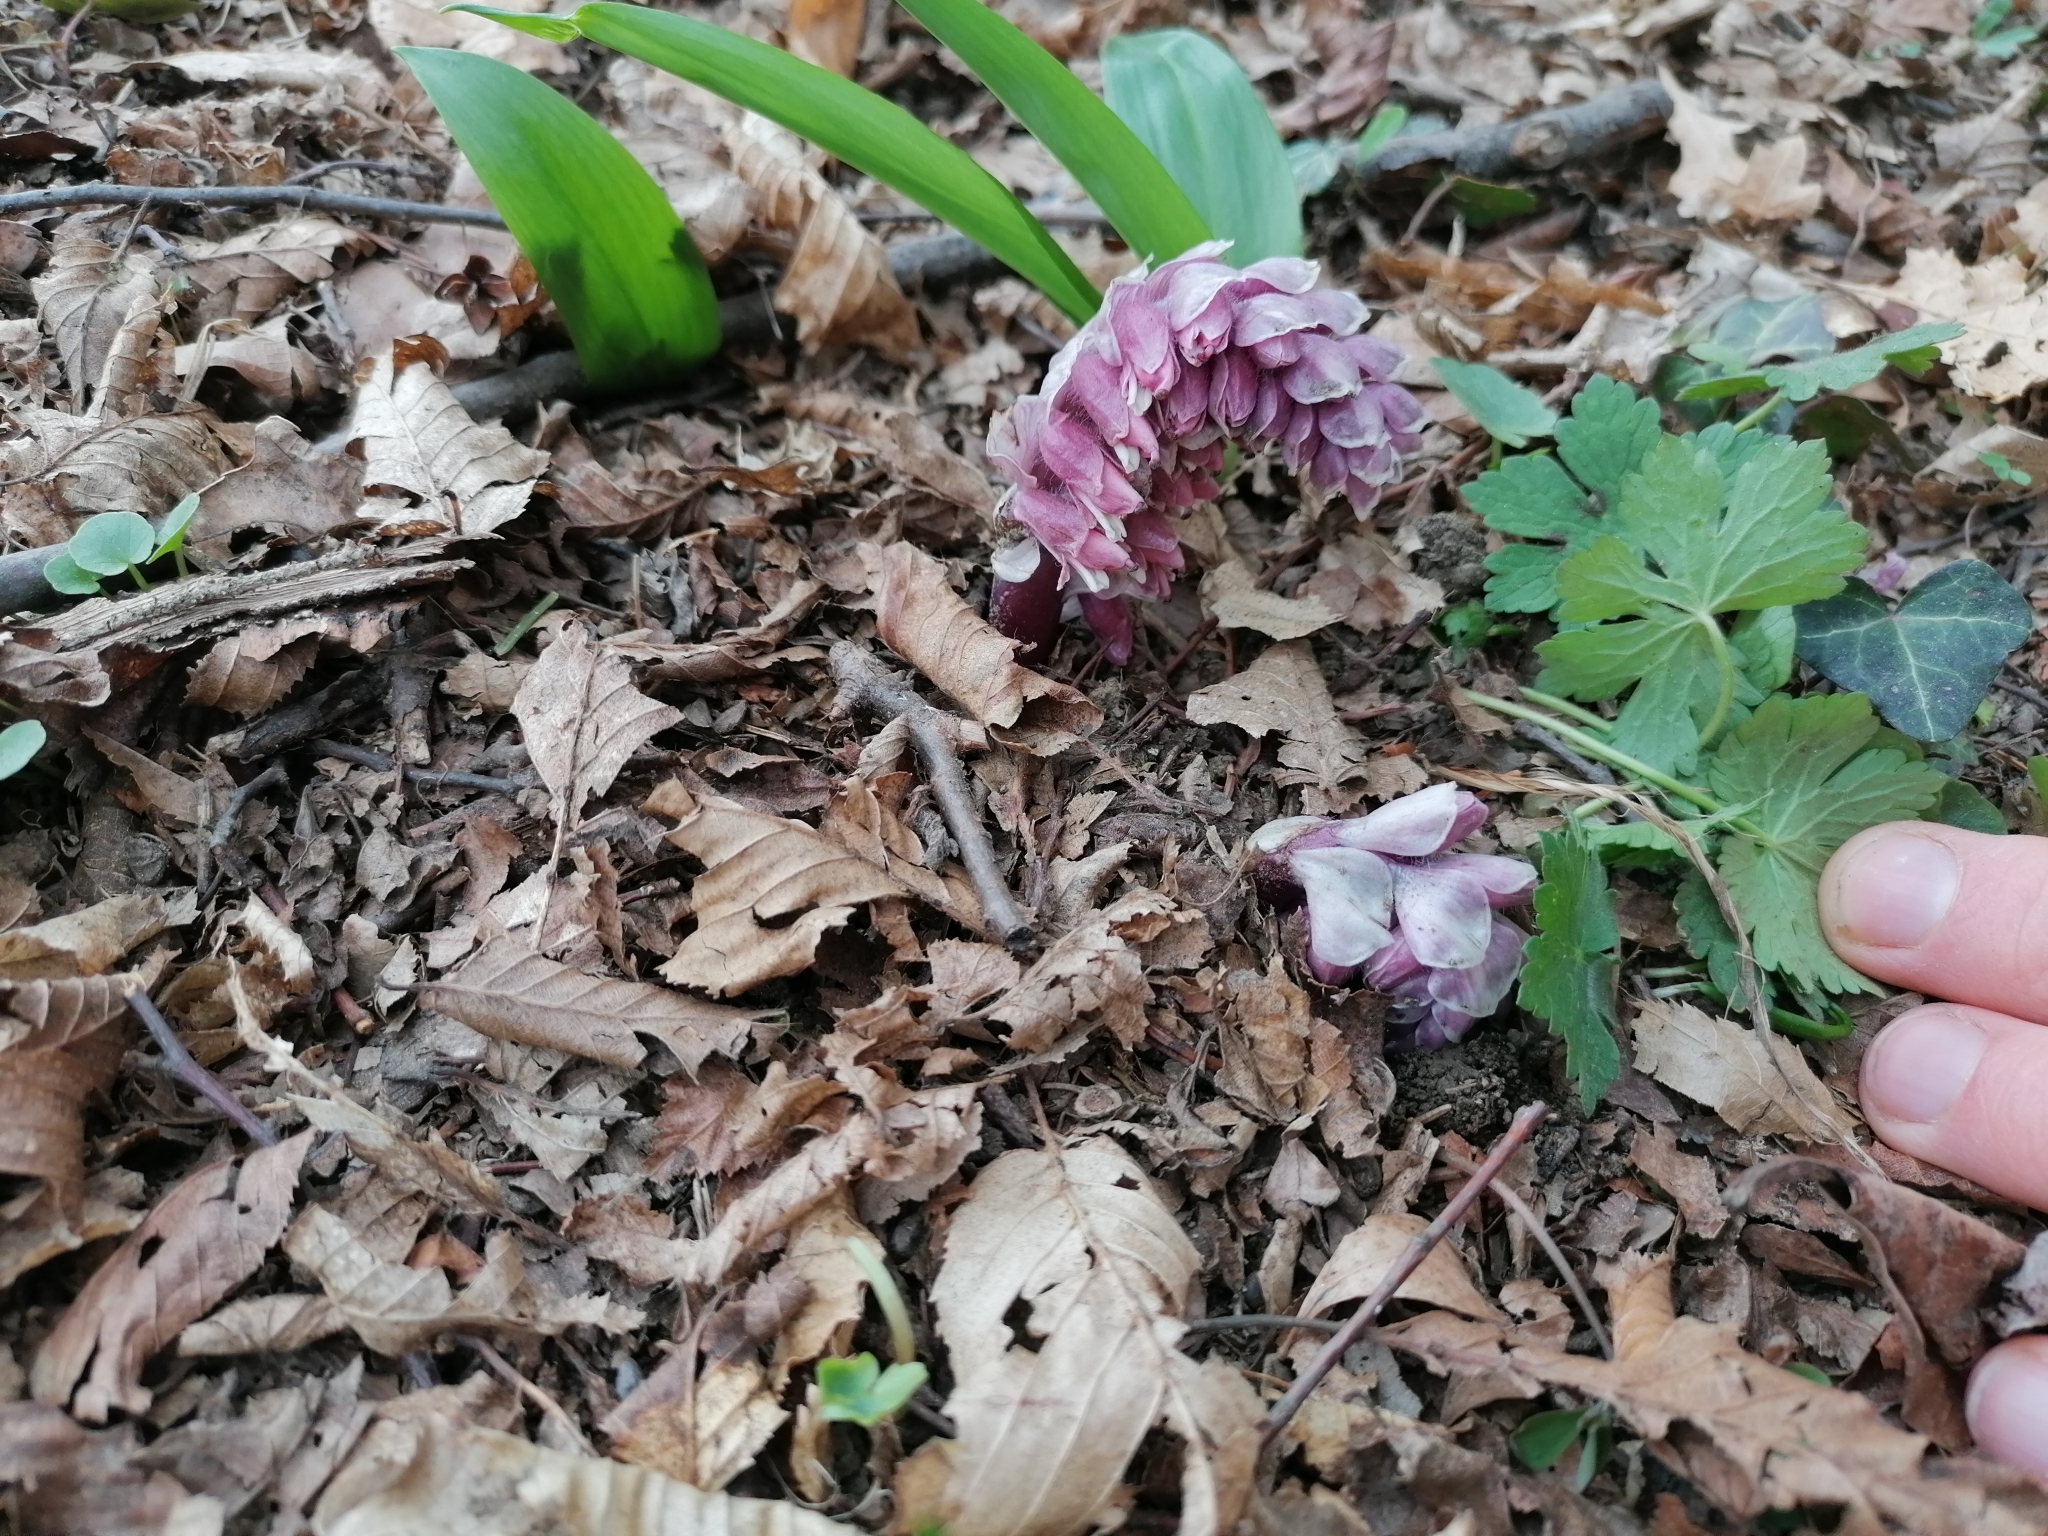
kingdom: Plantae
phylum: Tracheophyta
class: Magnoliopsida
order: Lamiales
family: Orobanchaceae
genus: Lathraea
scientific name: Lathraea squamaria
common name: Toothwort
